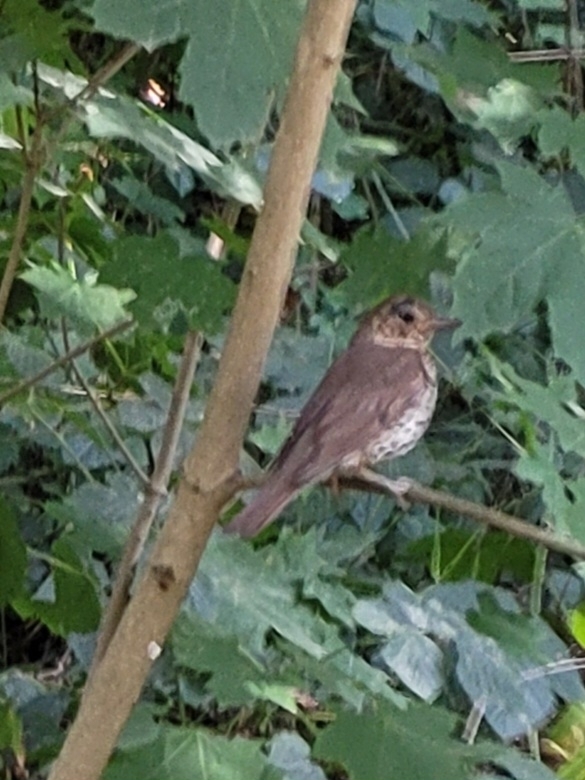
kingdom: Animalia
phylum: Chordata
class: Aves
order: Passeriformes
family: Turdidae
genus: Turdus
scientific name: Turdus philomelos
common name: Song thrush
